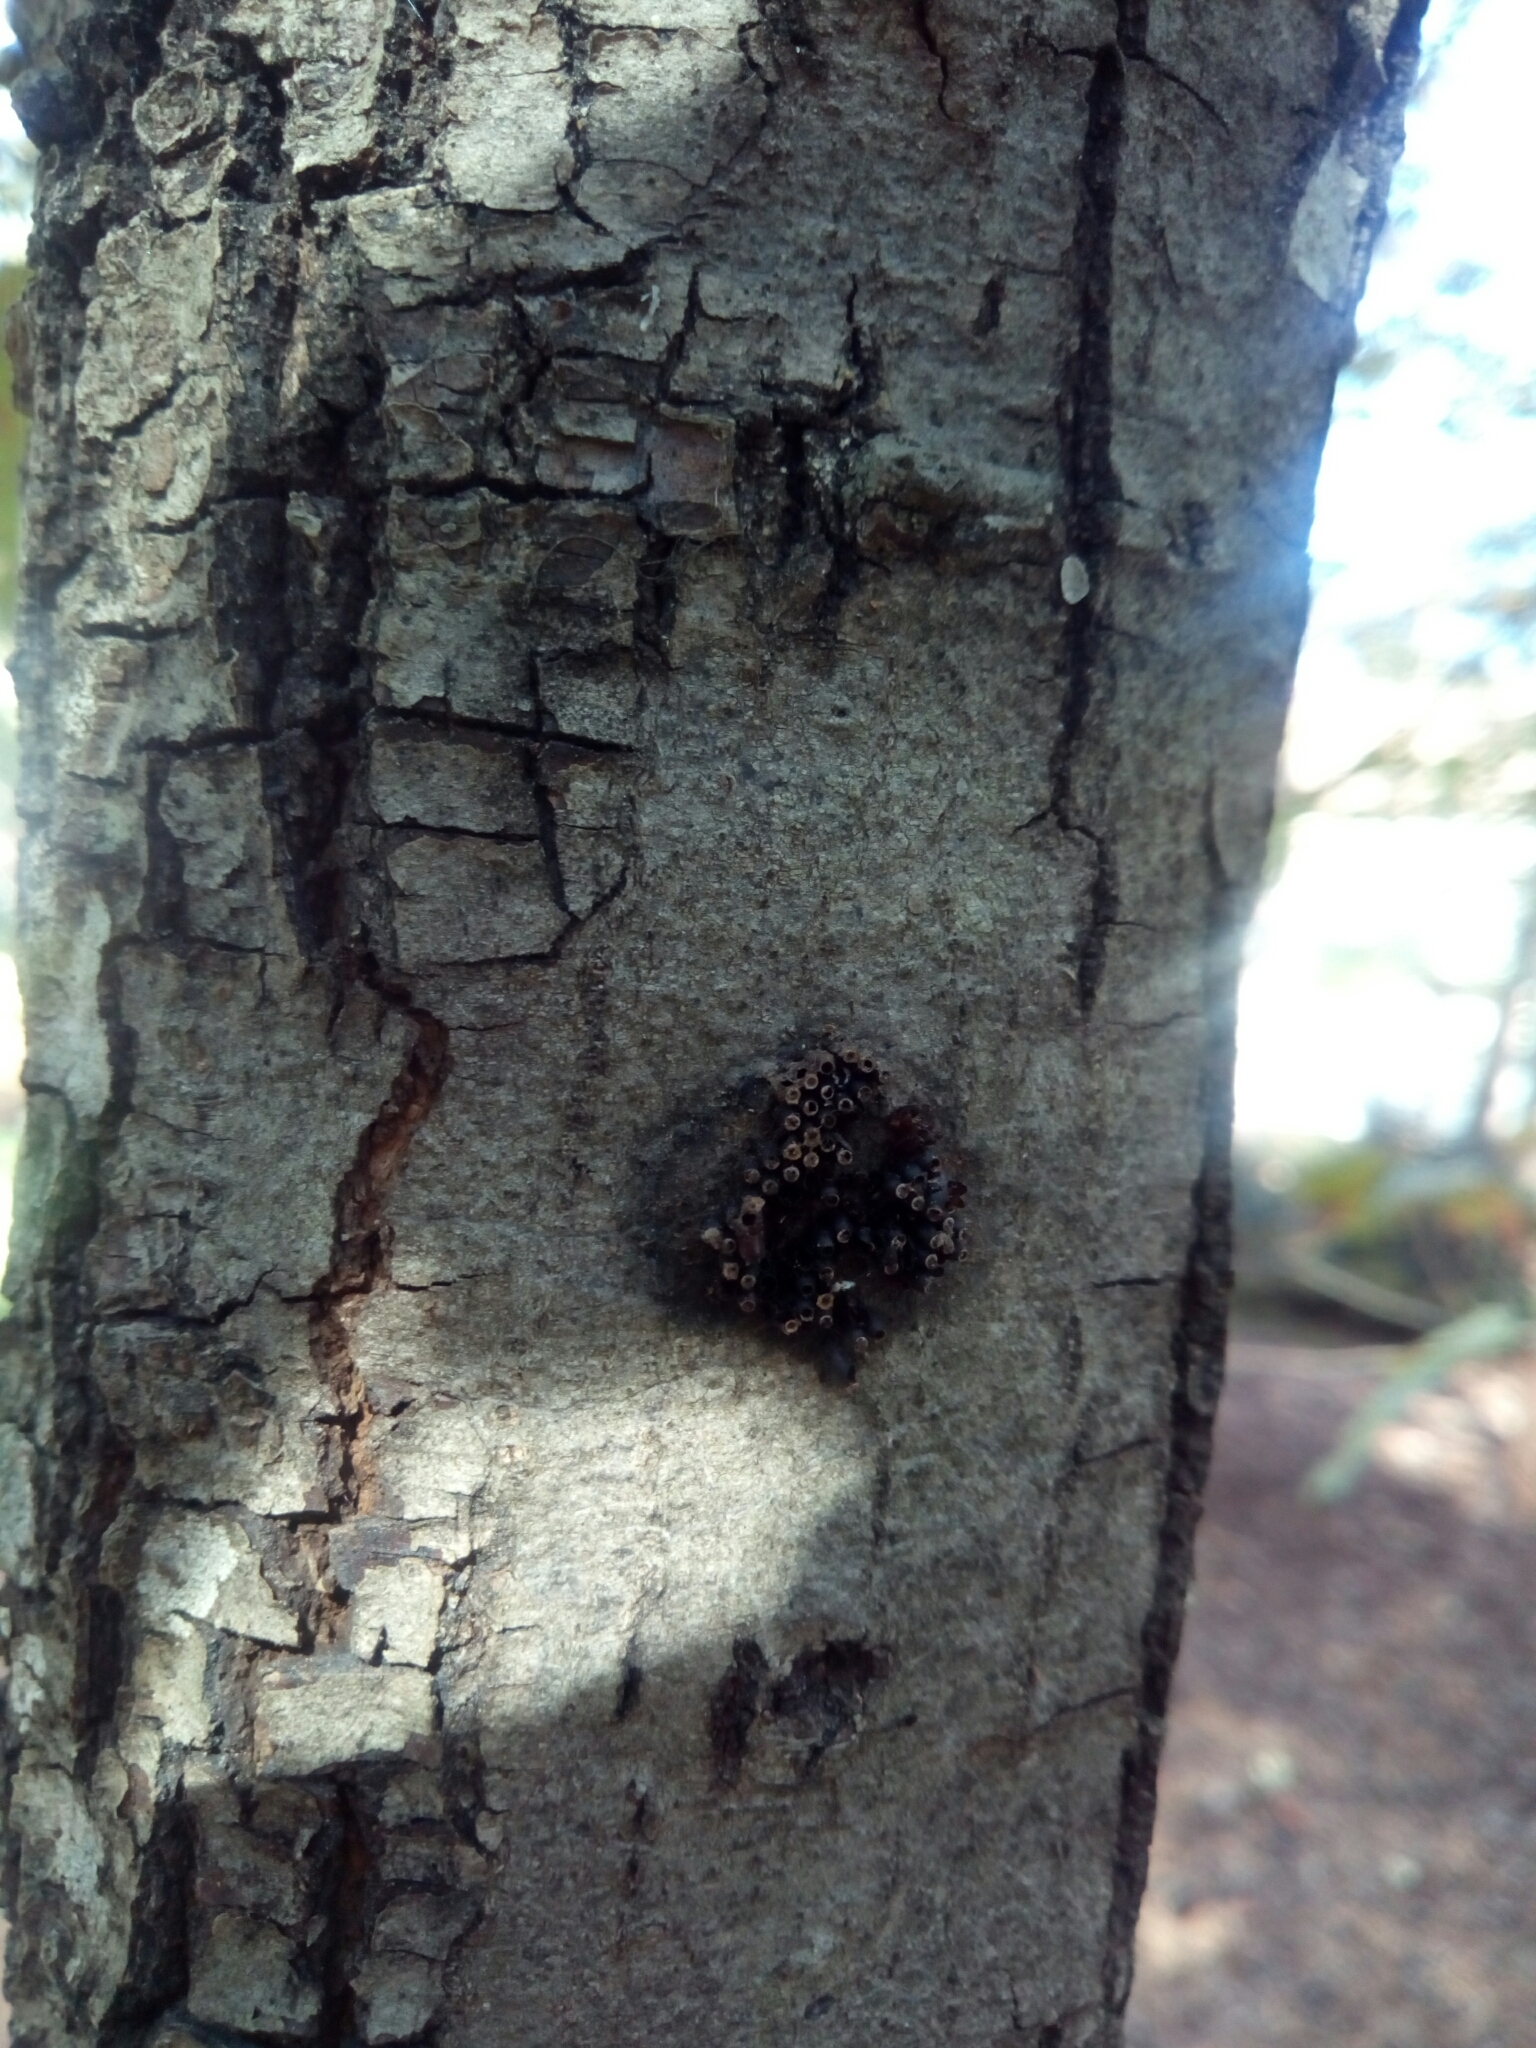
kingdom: Animalia
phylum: Arthropoda
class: Insecta
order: Hemiptera
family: Reduviidae
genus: Arilus
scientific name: Arilus cristatus
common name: North american wheel bug
